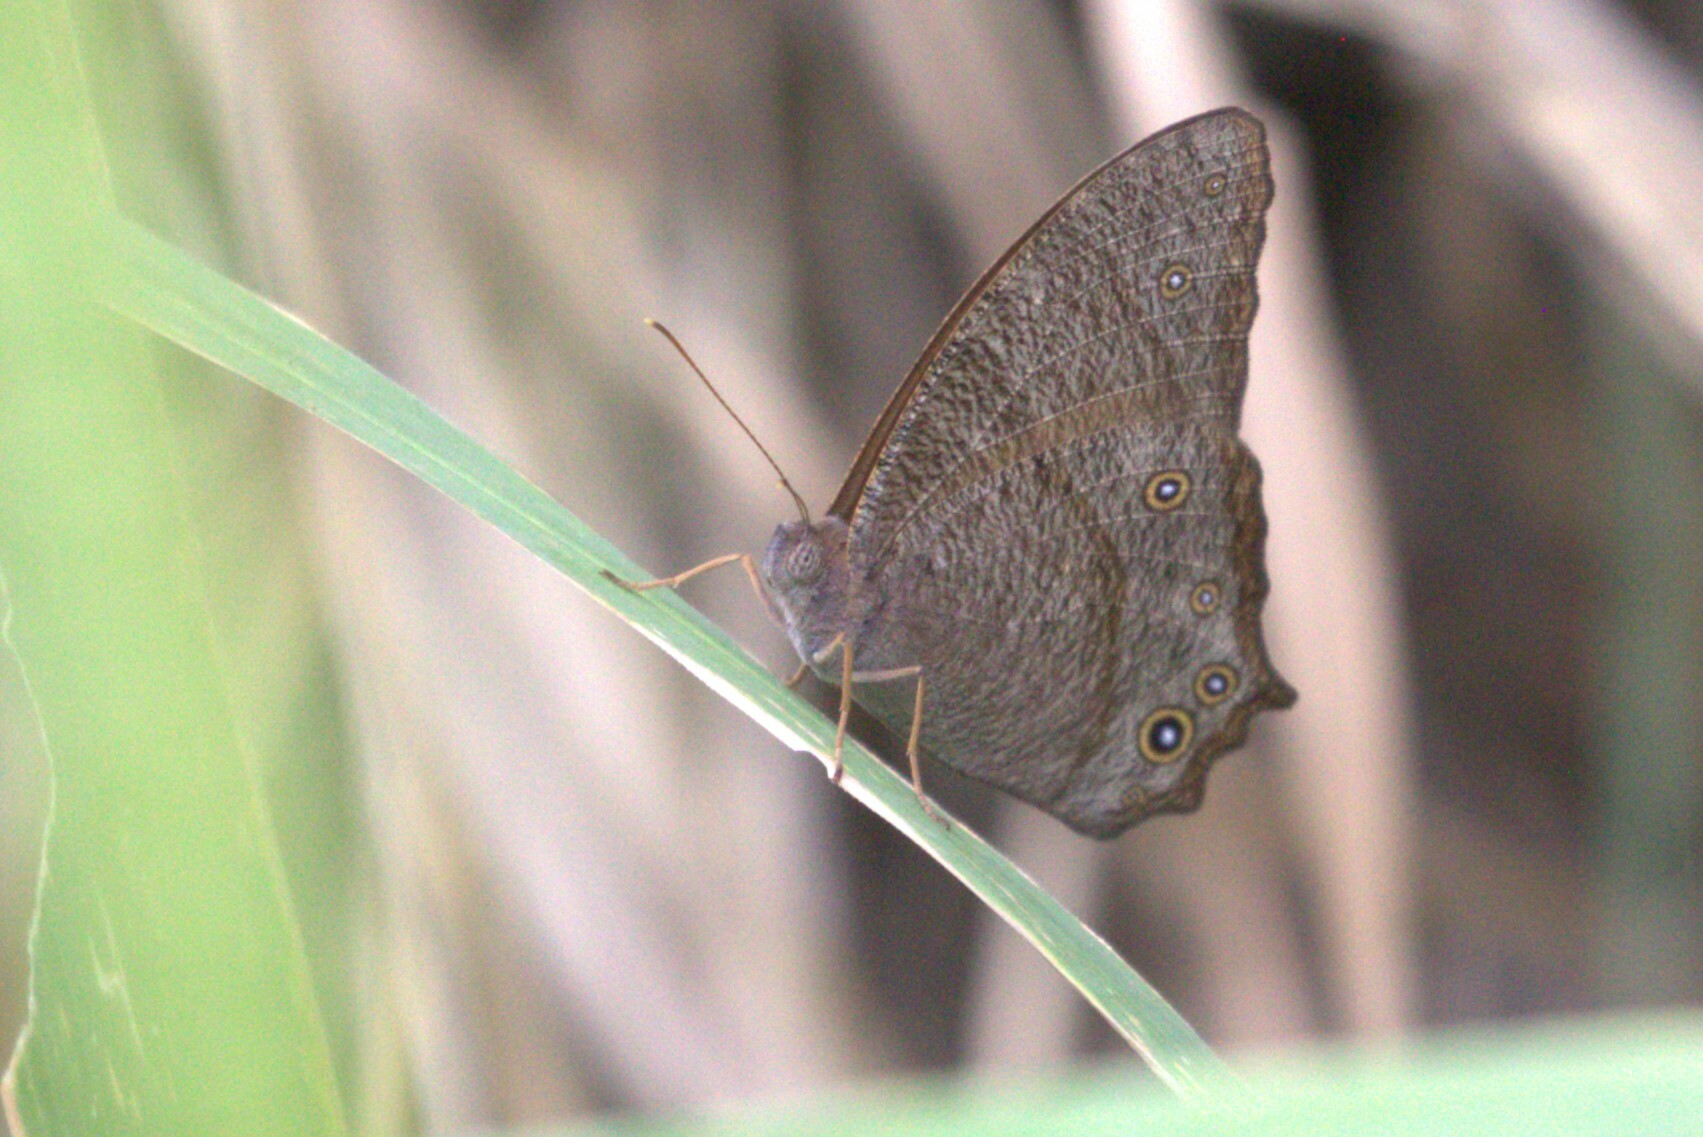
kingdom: Animalia
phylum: Arthropoda
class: Insecta
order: Lepidoptera
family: Nymphalidae
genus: Melanitis
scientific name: Melanitis leda
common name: Twilight brown
